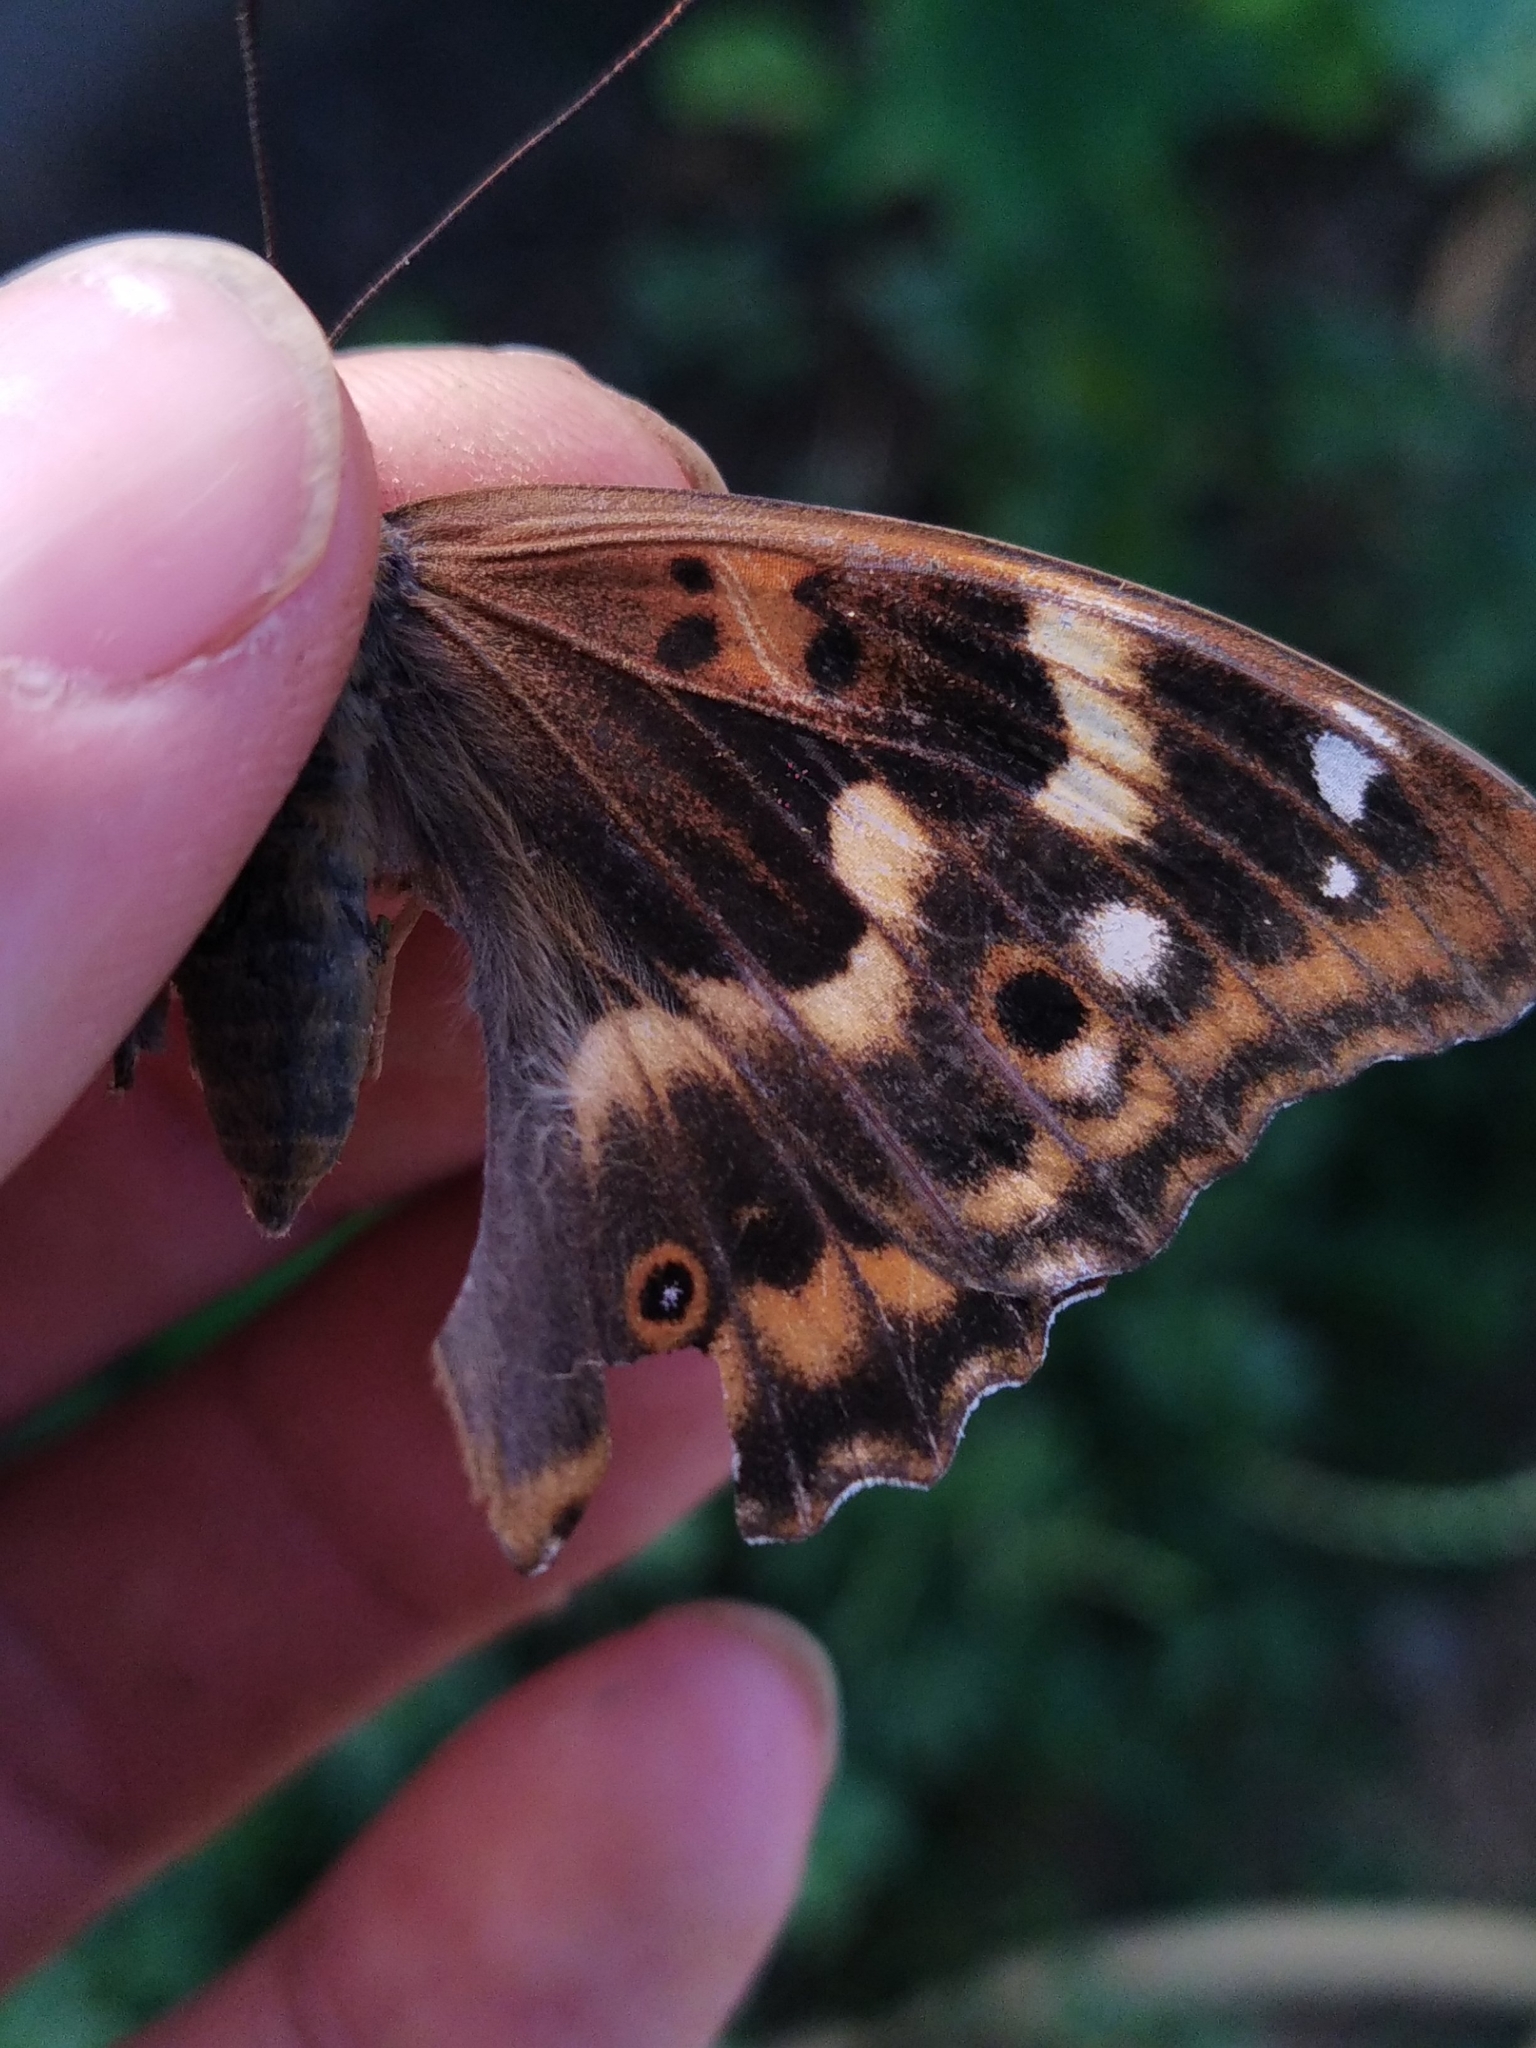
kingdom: Animalia
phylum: Arthropoda
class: Insecta
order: Lepidoptera
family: Nymphalidae
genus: Apatura
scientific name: Apatura ilia
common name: Lesser purple emperor
